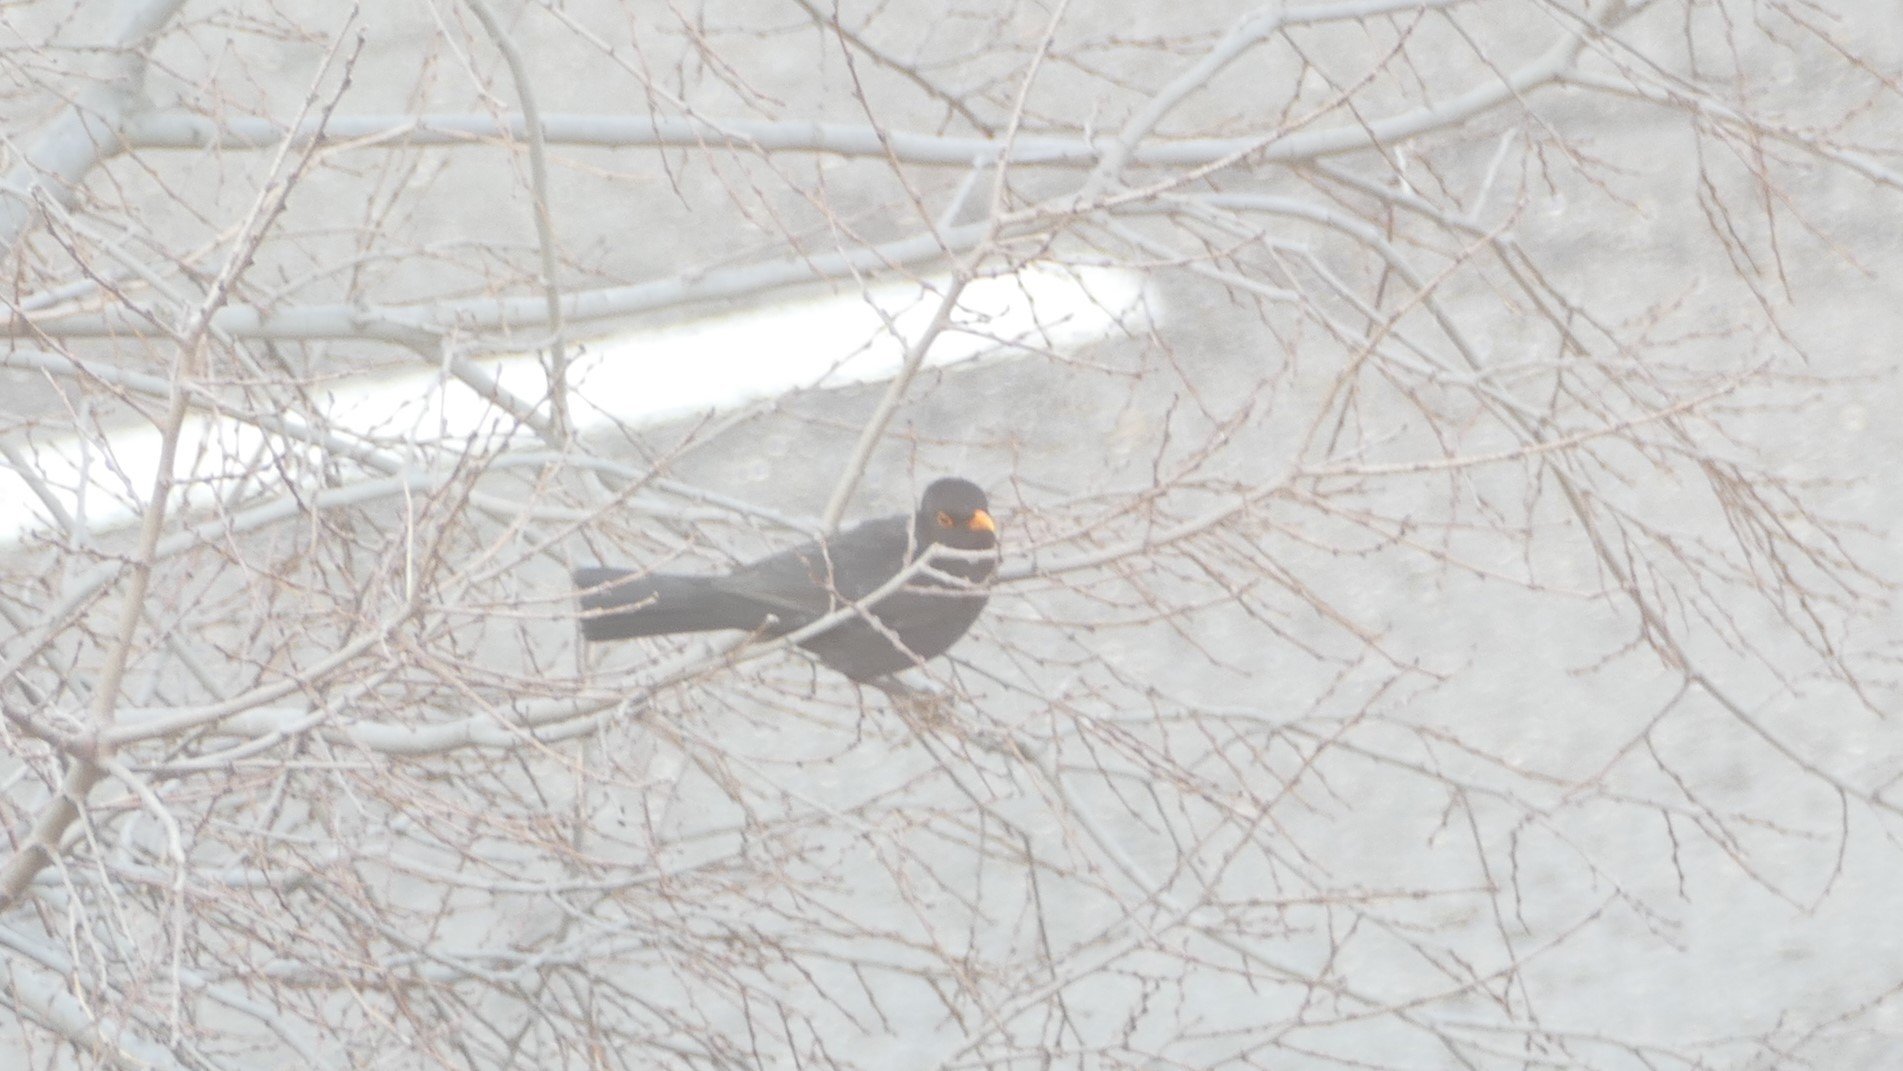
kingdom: Animalia
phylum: Chordata
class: Aves
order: Passeriformes
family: Turdidae
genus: Turdus
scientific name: Turdus merula
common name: Common blackbird
